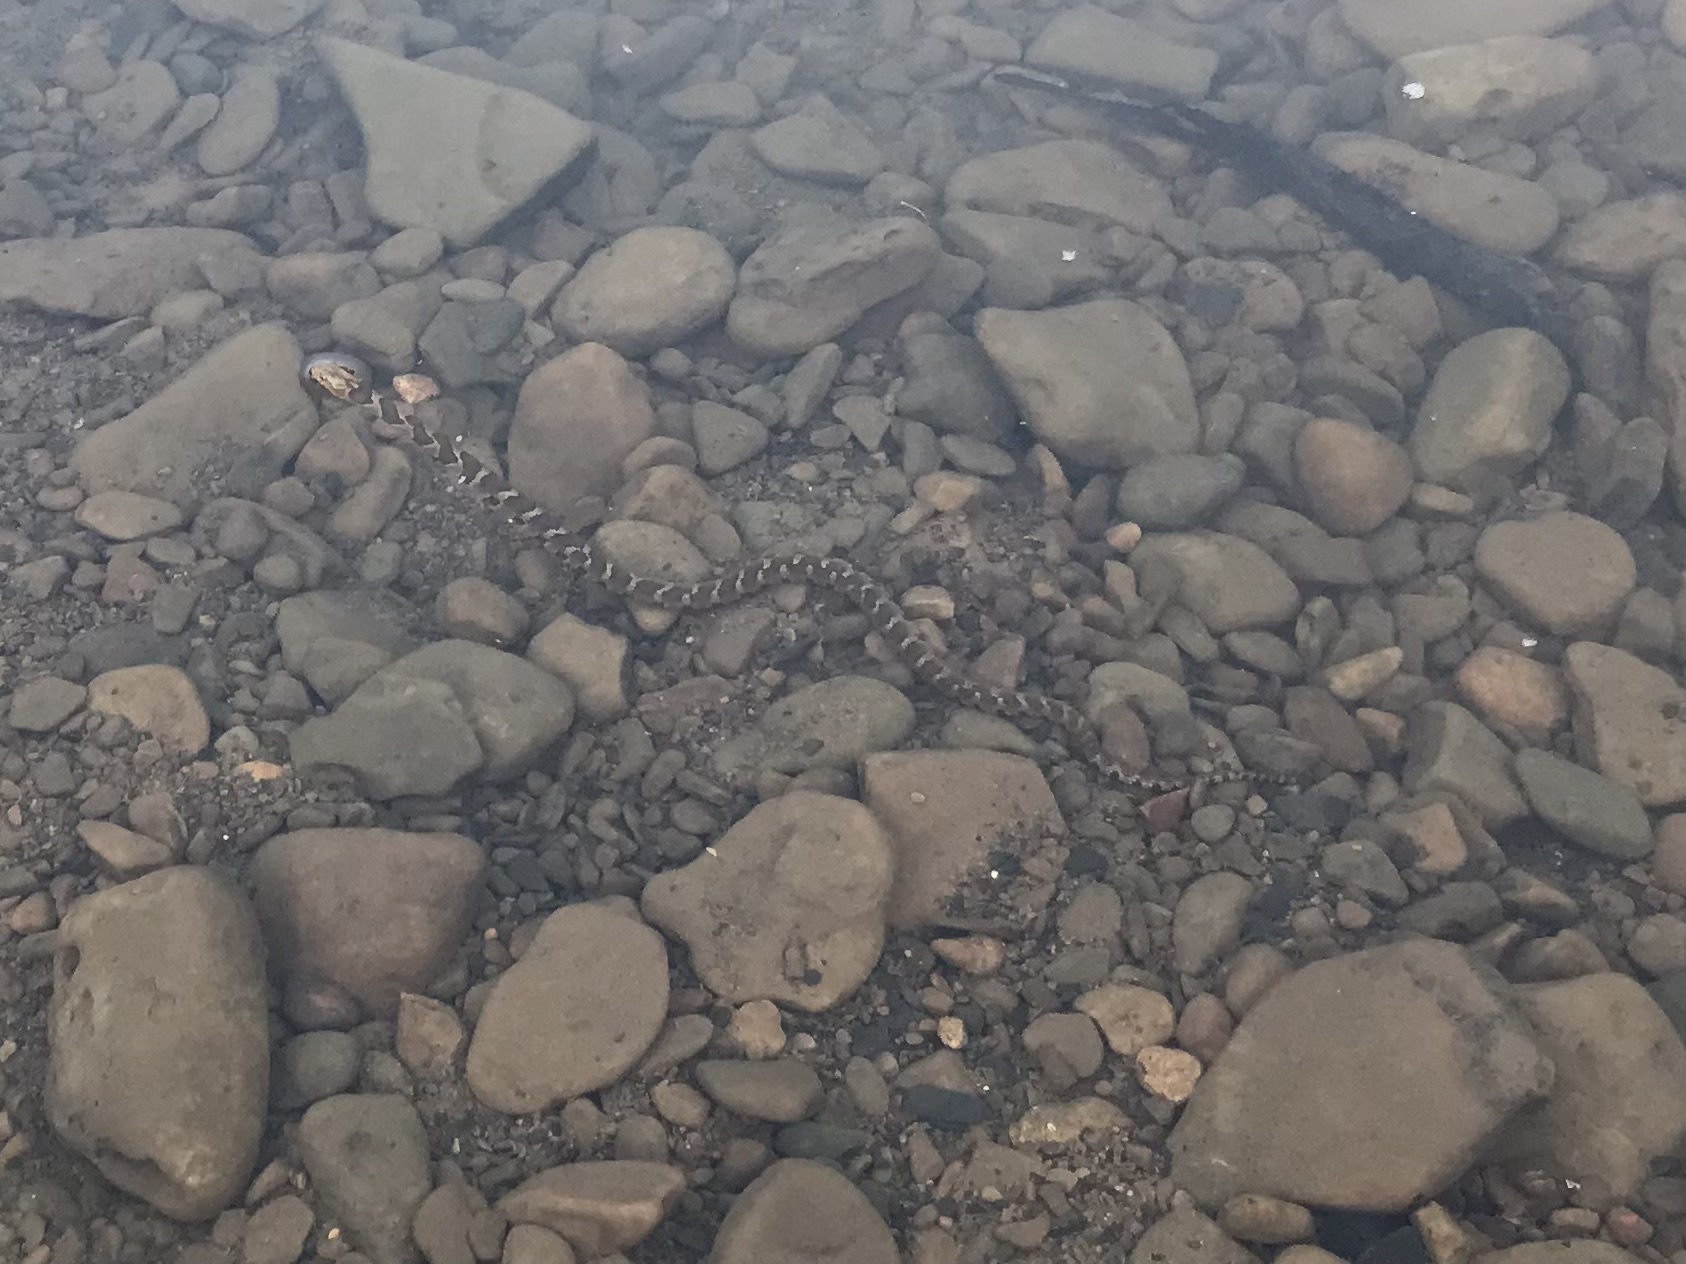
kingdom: Animalia
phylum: Chordata
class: Squamata
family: Colubridae
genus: Nerodia
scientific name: Nerodia sipedon
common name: Northern water snake
